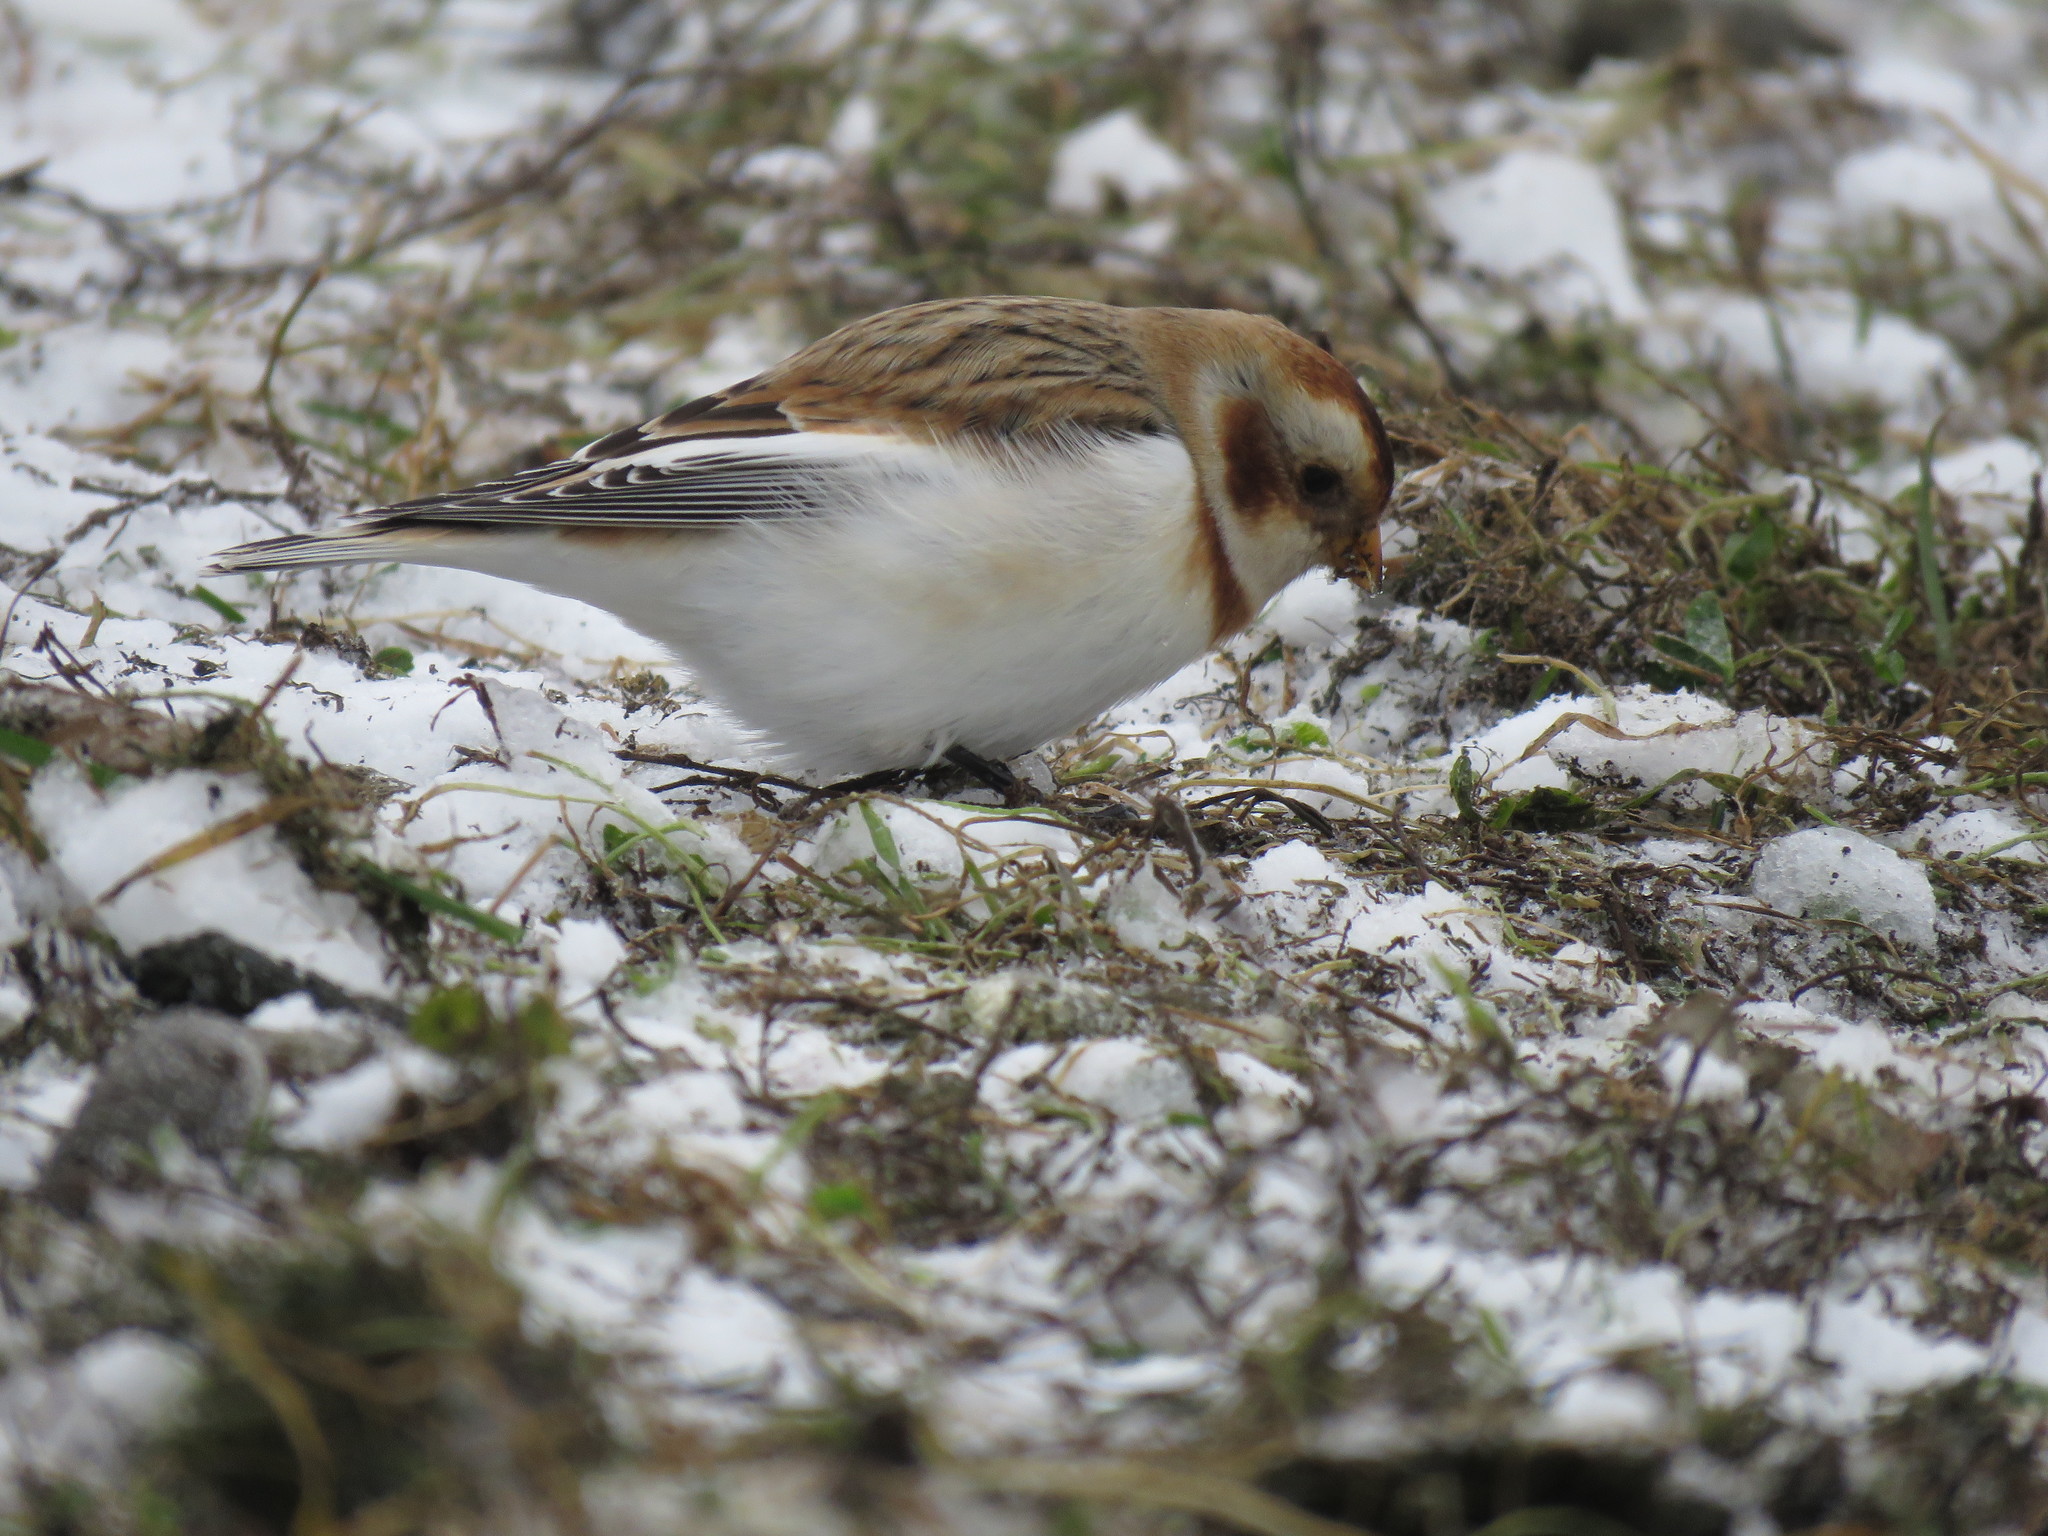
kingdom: Animalia
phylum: Chordata
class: Aves
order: Passeriformes
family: Calcariidae
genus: Plectrophenax
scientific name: Plectrophenax nivalis
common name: Snow bunting
